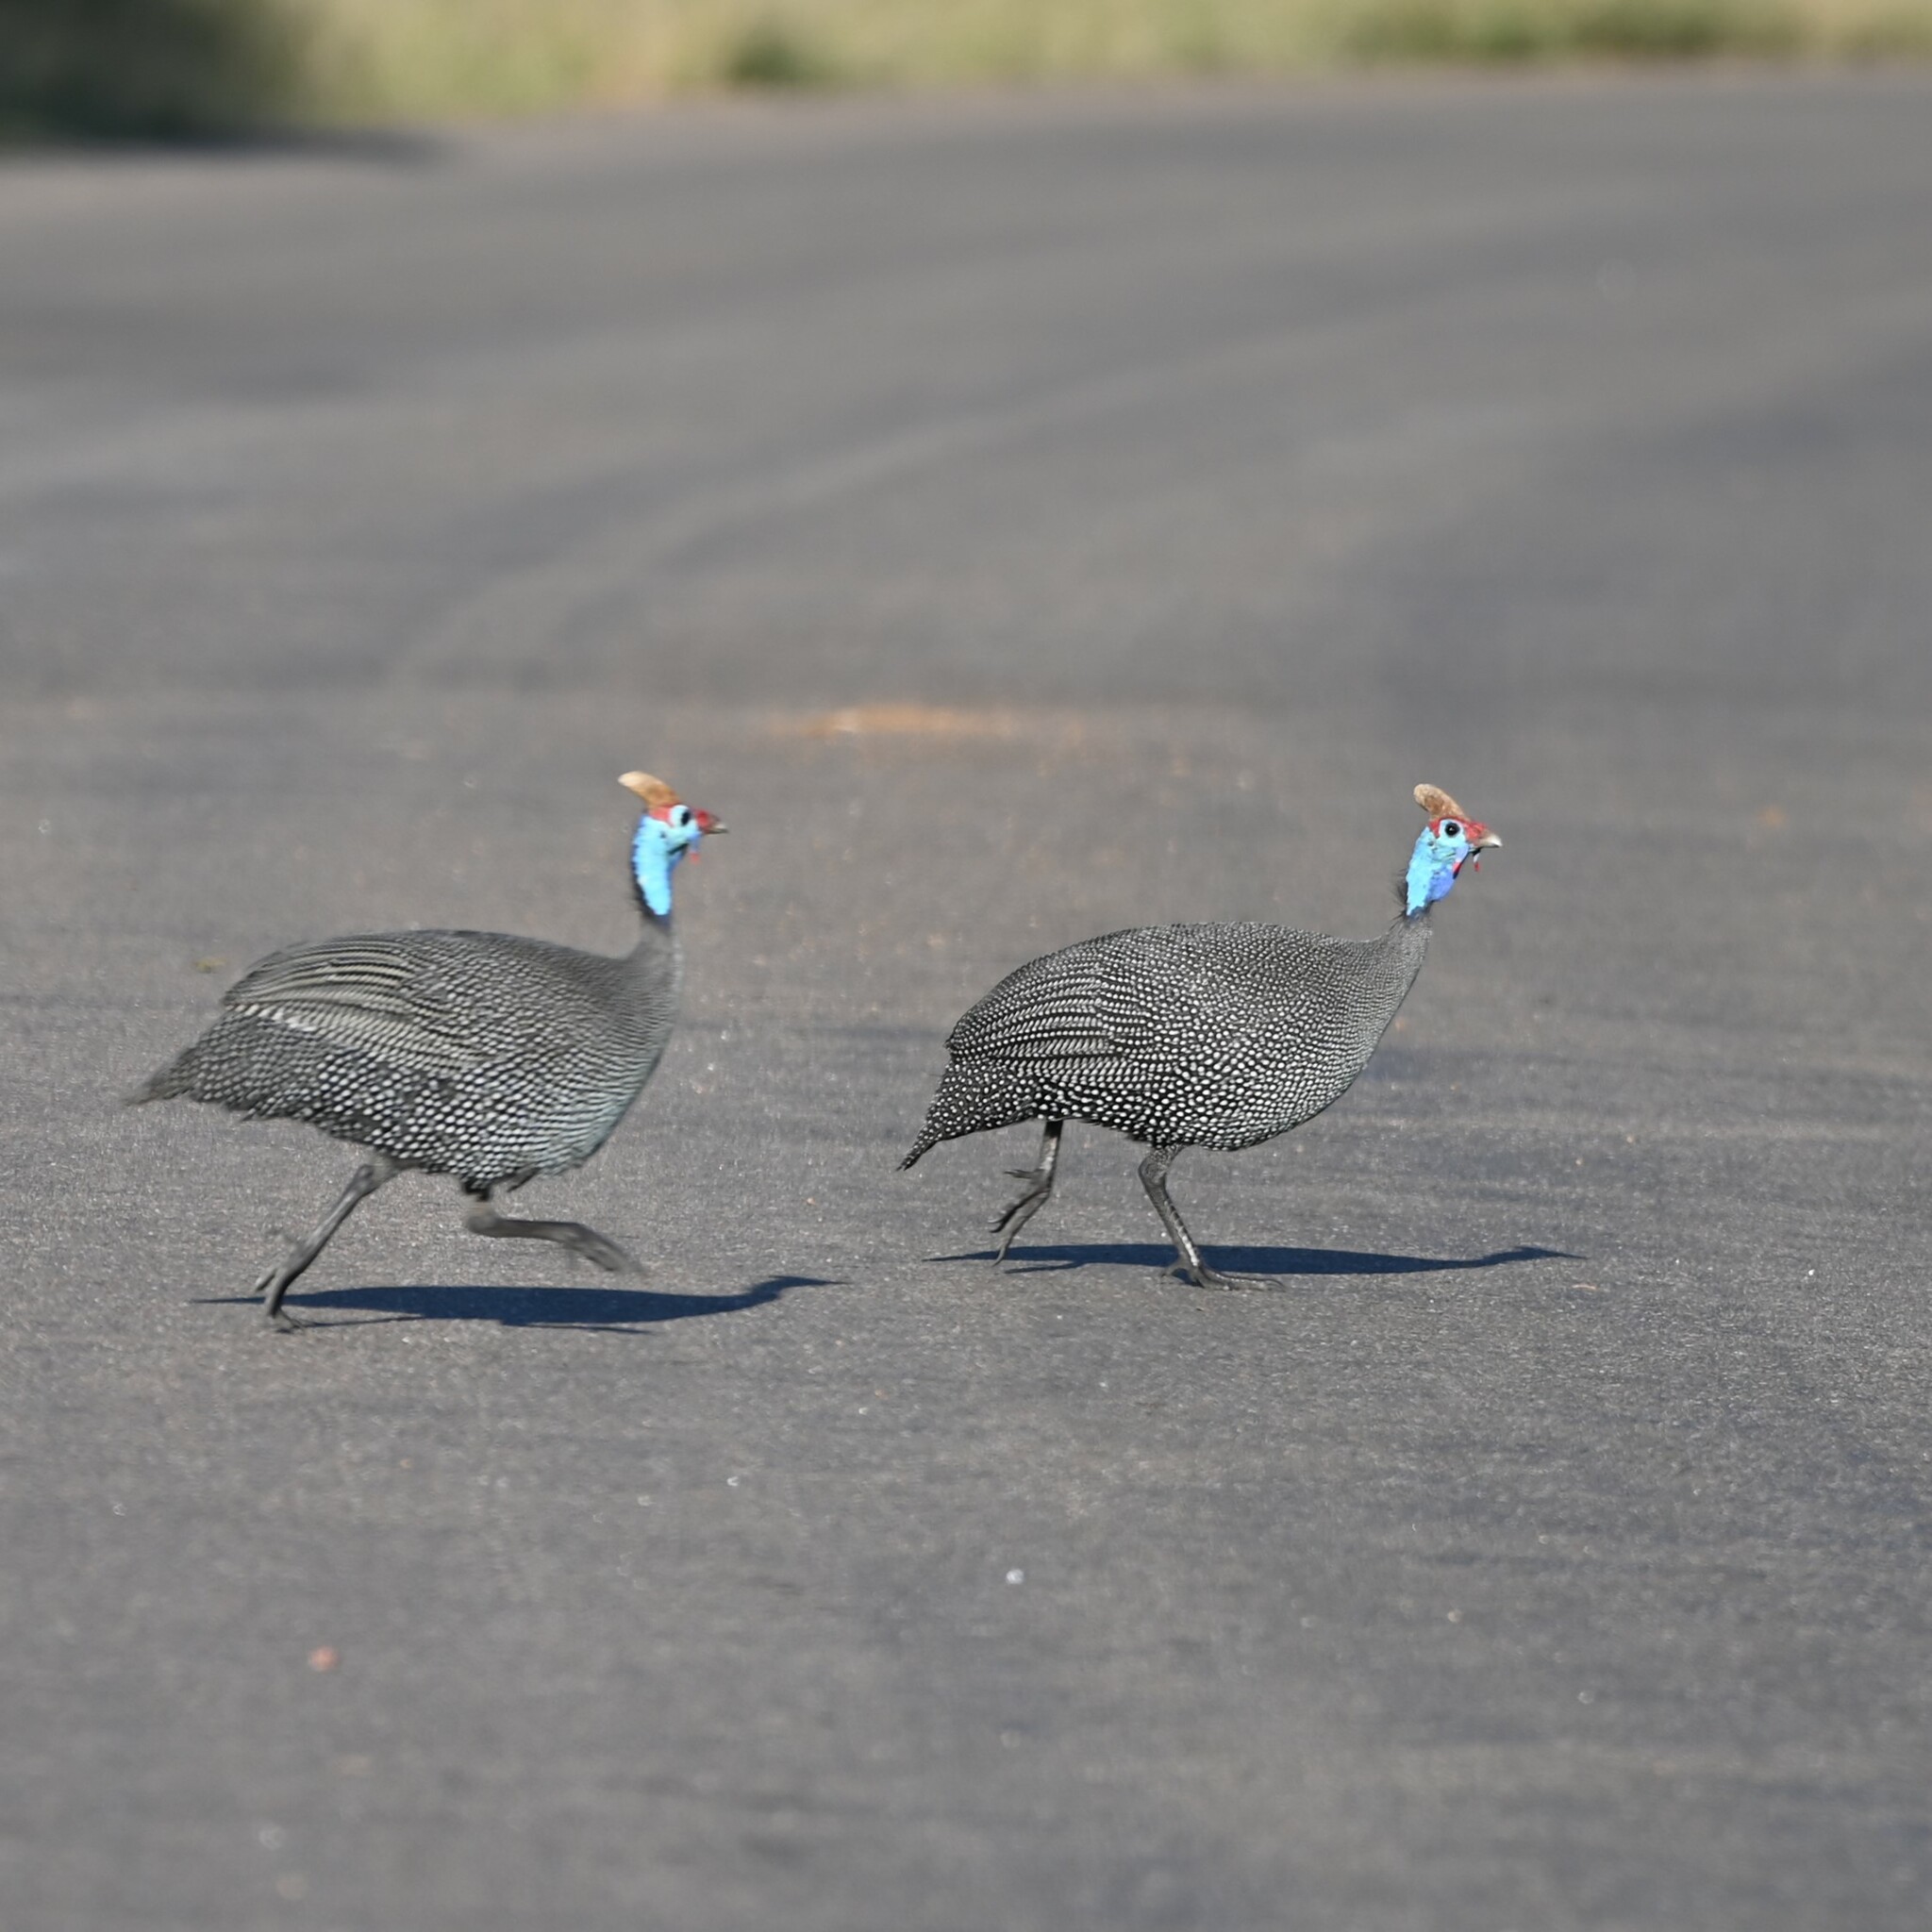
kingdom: Animalia
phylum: Chordata
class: Aves
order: Galliformes
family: Numididae
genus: Numida
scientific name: Numida meleagris
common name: Helmeted guineafowl
